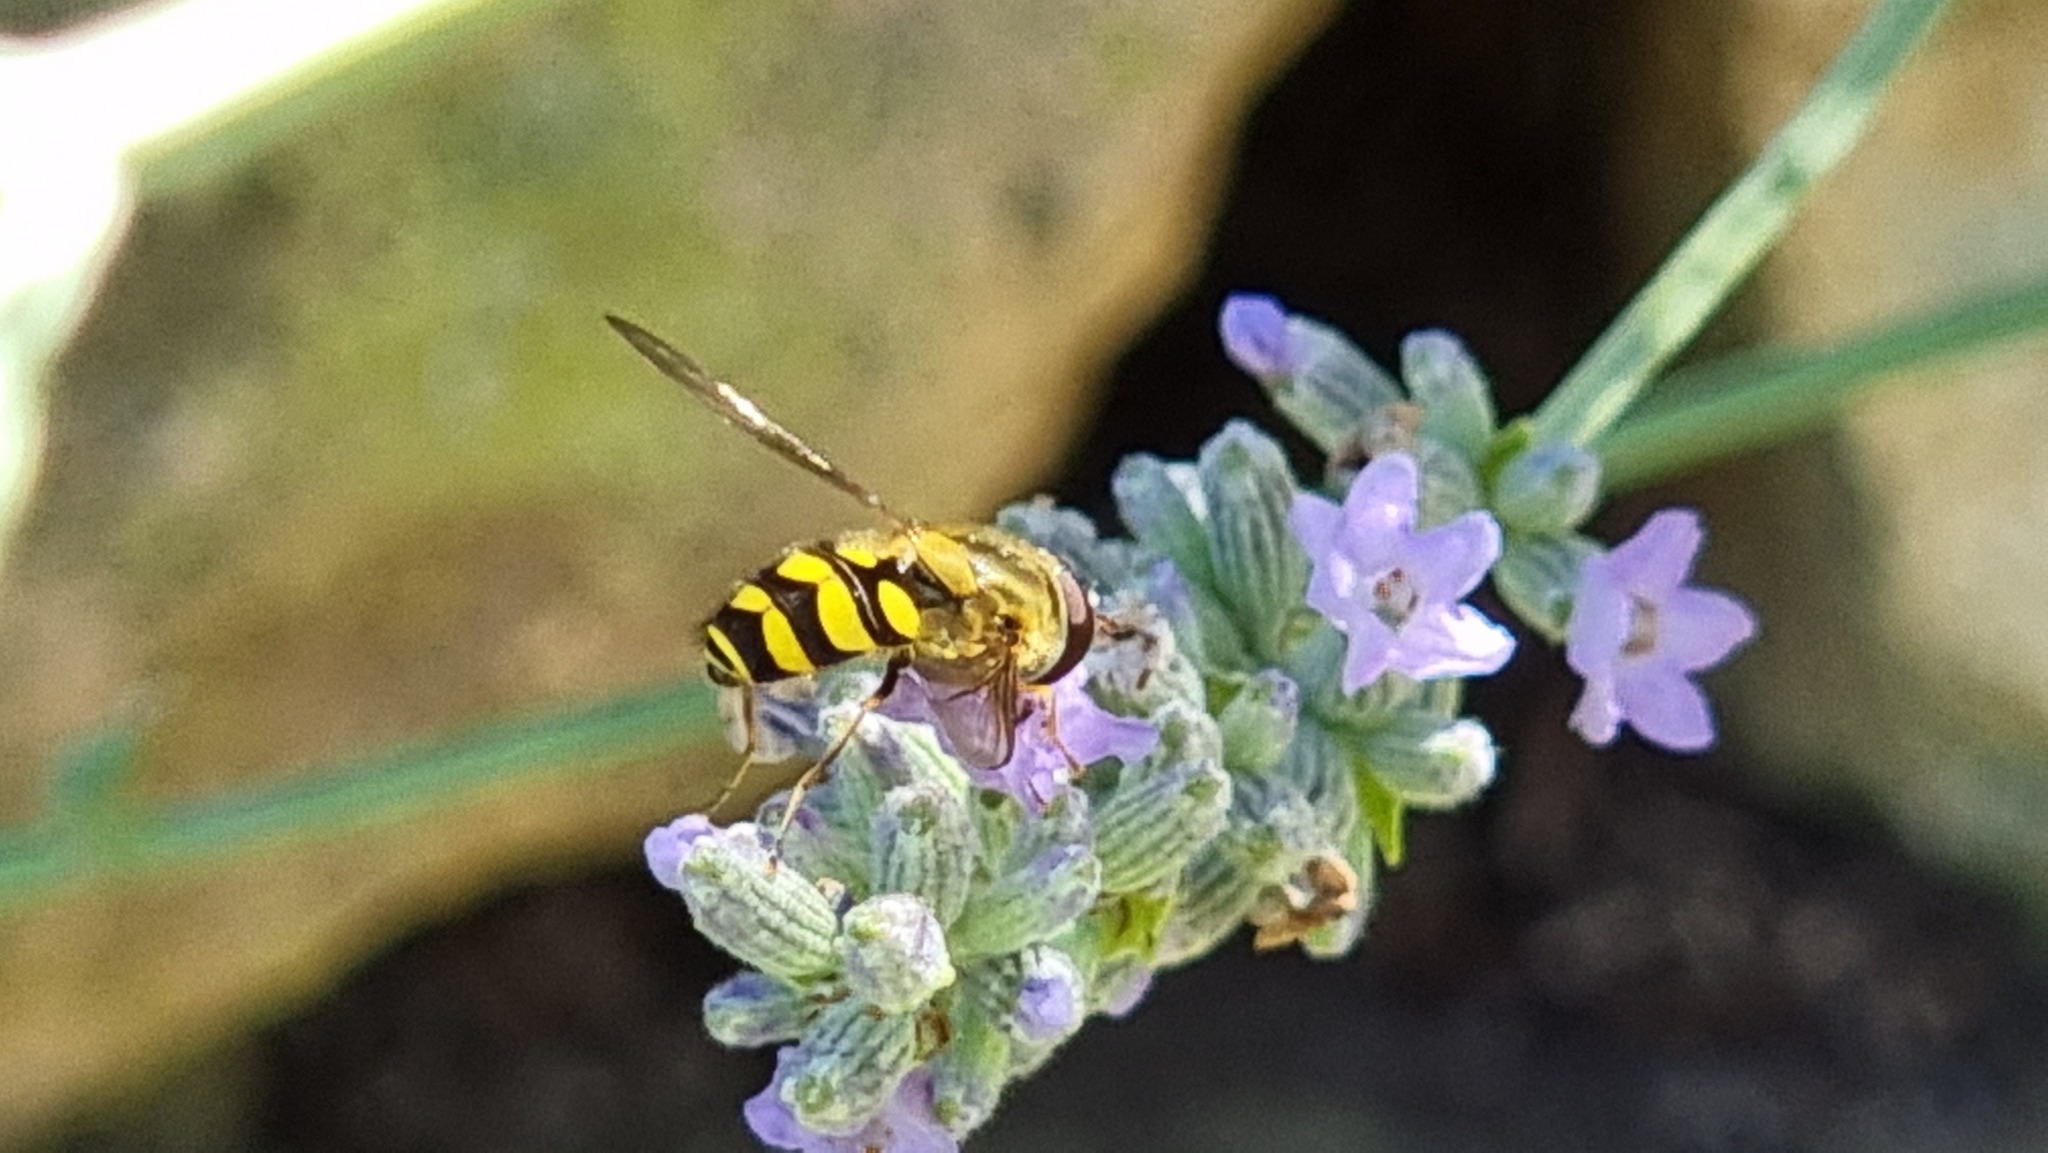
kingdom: Animalia
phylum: Arthropoda
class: Insecta
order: Diptera
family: Syrphidae
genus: Syrphus
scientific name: Syrphus
